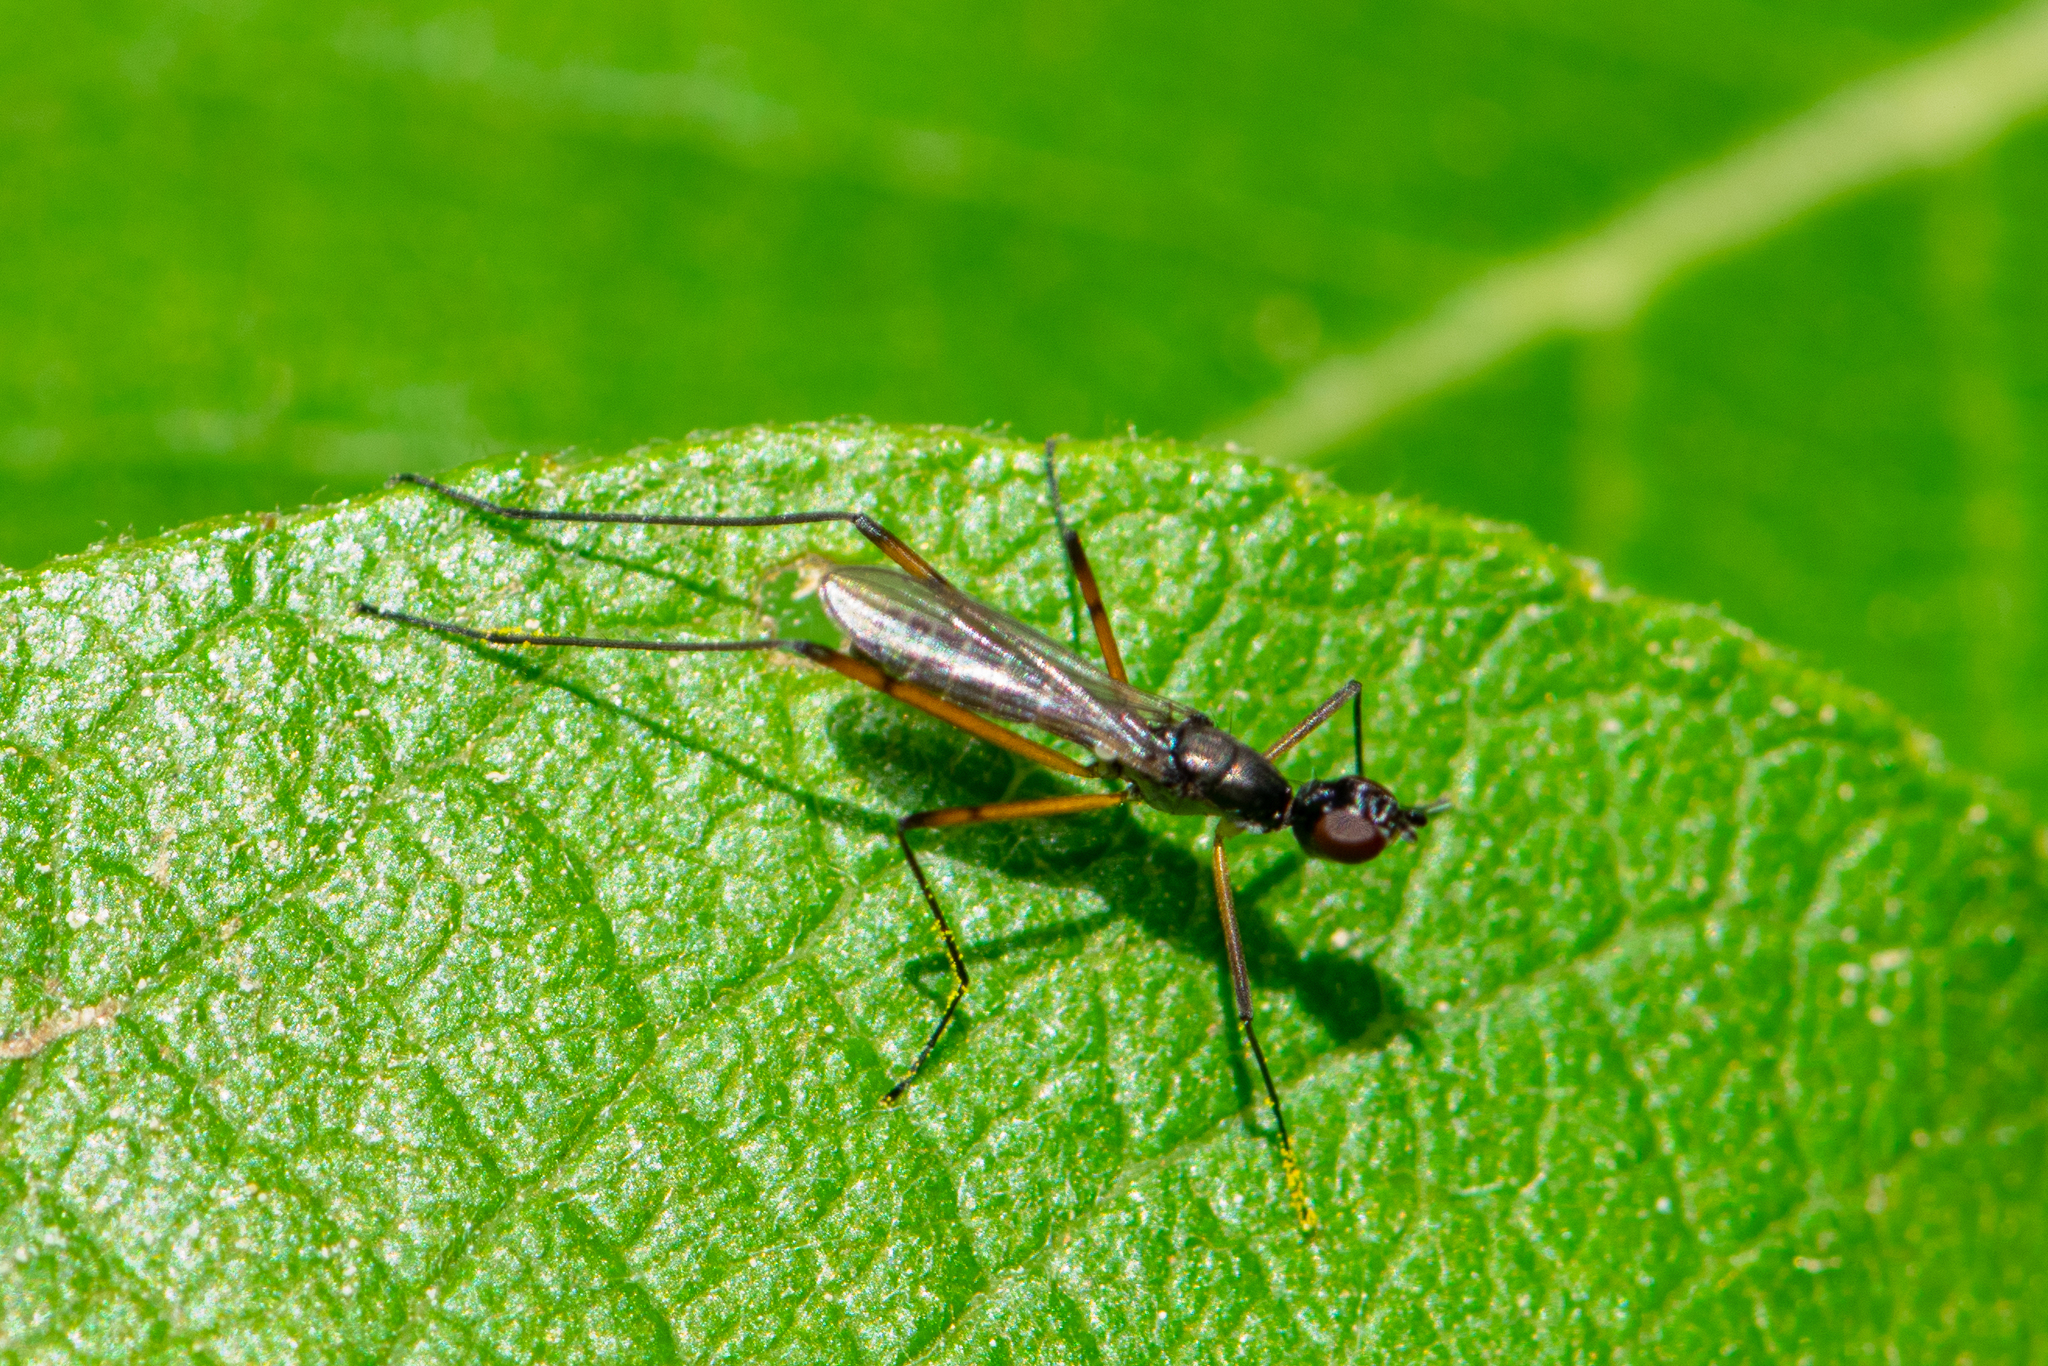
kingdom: Animalia
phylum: Arthropoda
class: Insecta
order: Diptera
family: Micropezidae
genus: Micropeza
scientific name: Micropeza corrigiolata
